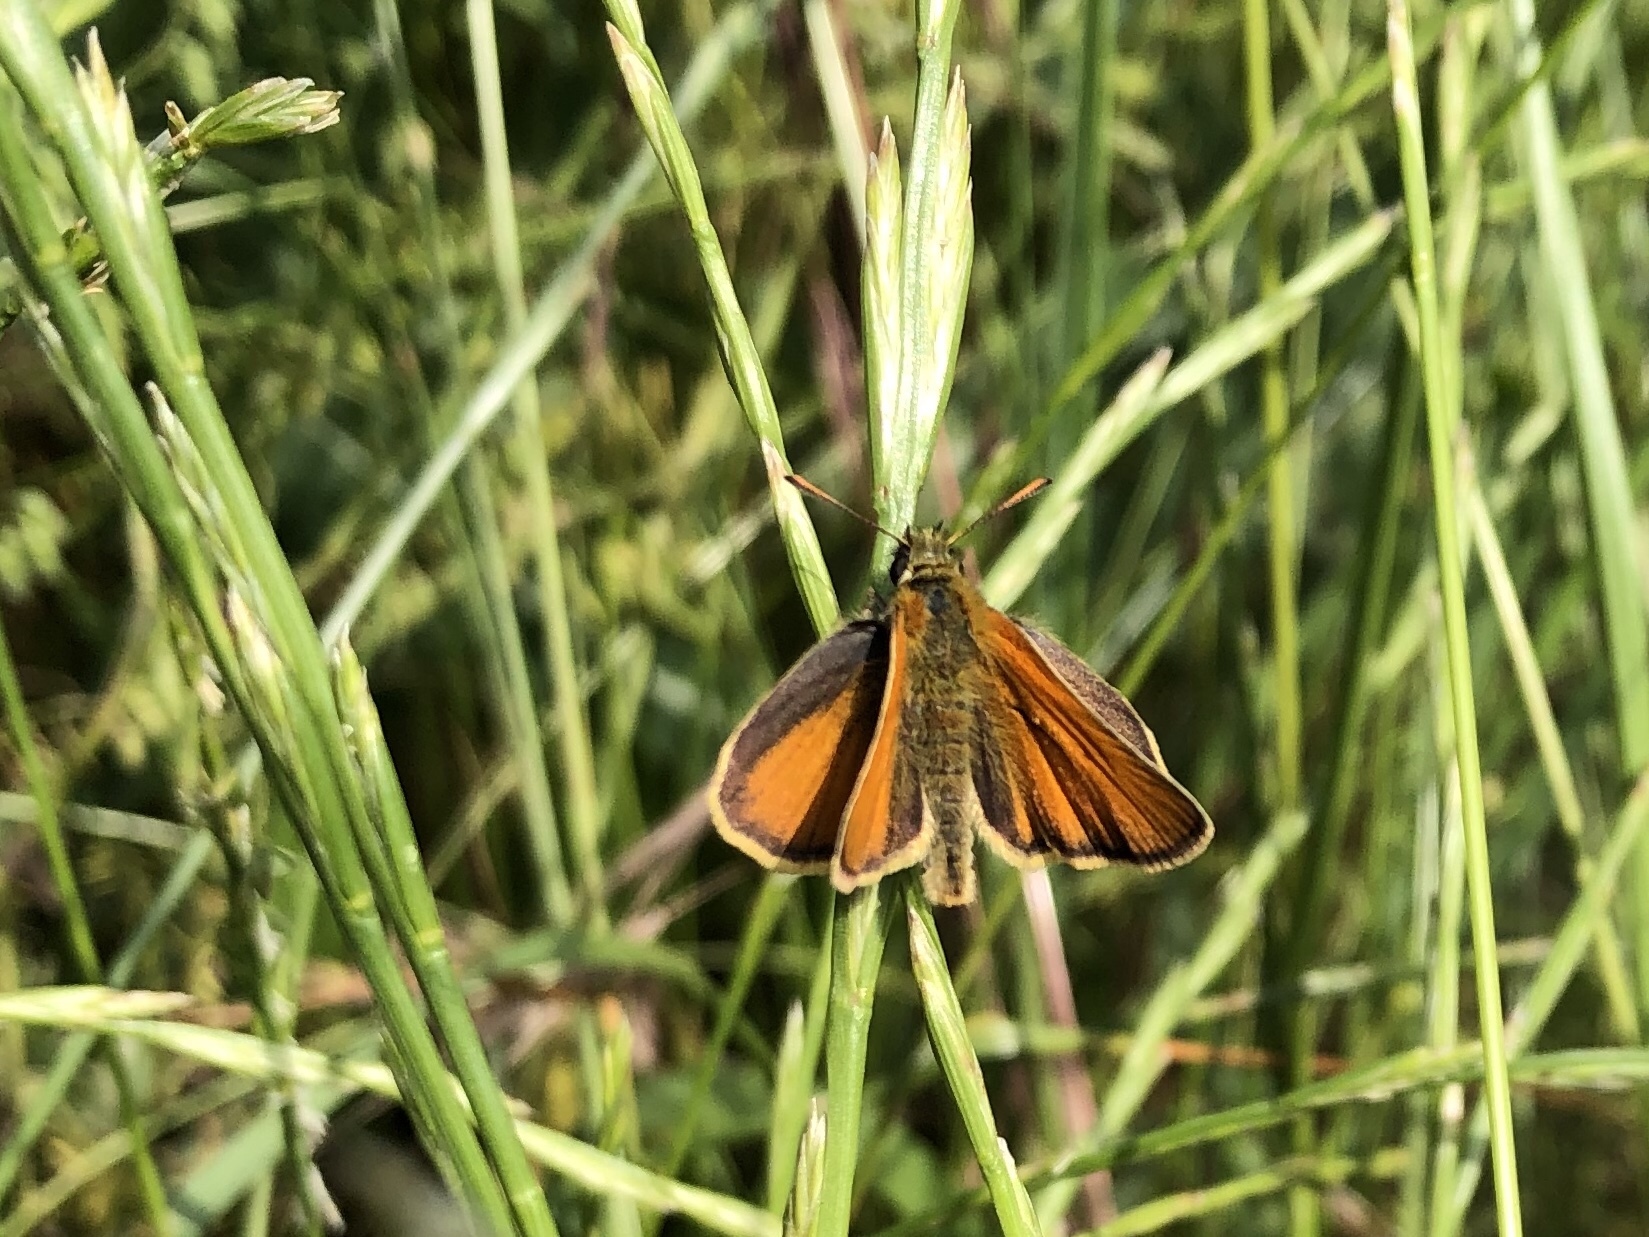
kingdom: Animalia
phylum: Arthropoda
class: Insecta
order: Lepidoptera
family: Hesperiidae
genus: Thymelicus
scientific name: Thymelicus sylvestris
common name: Small skipper
